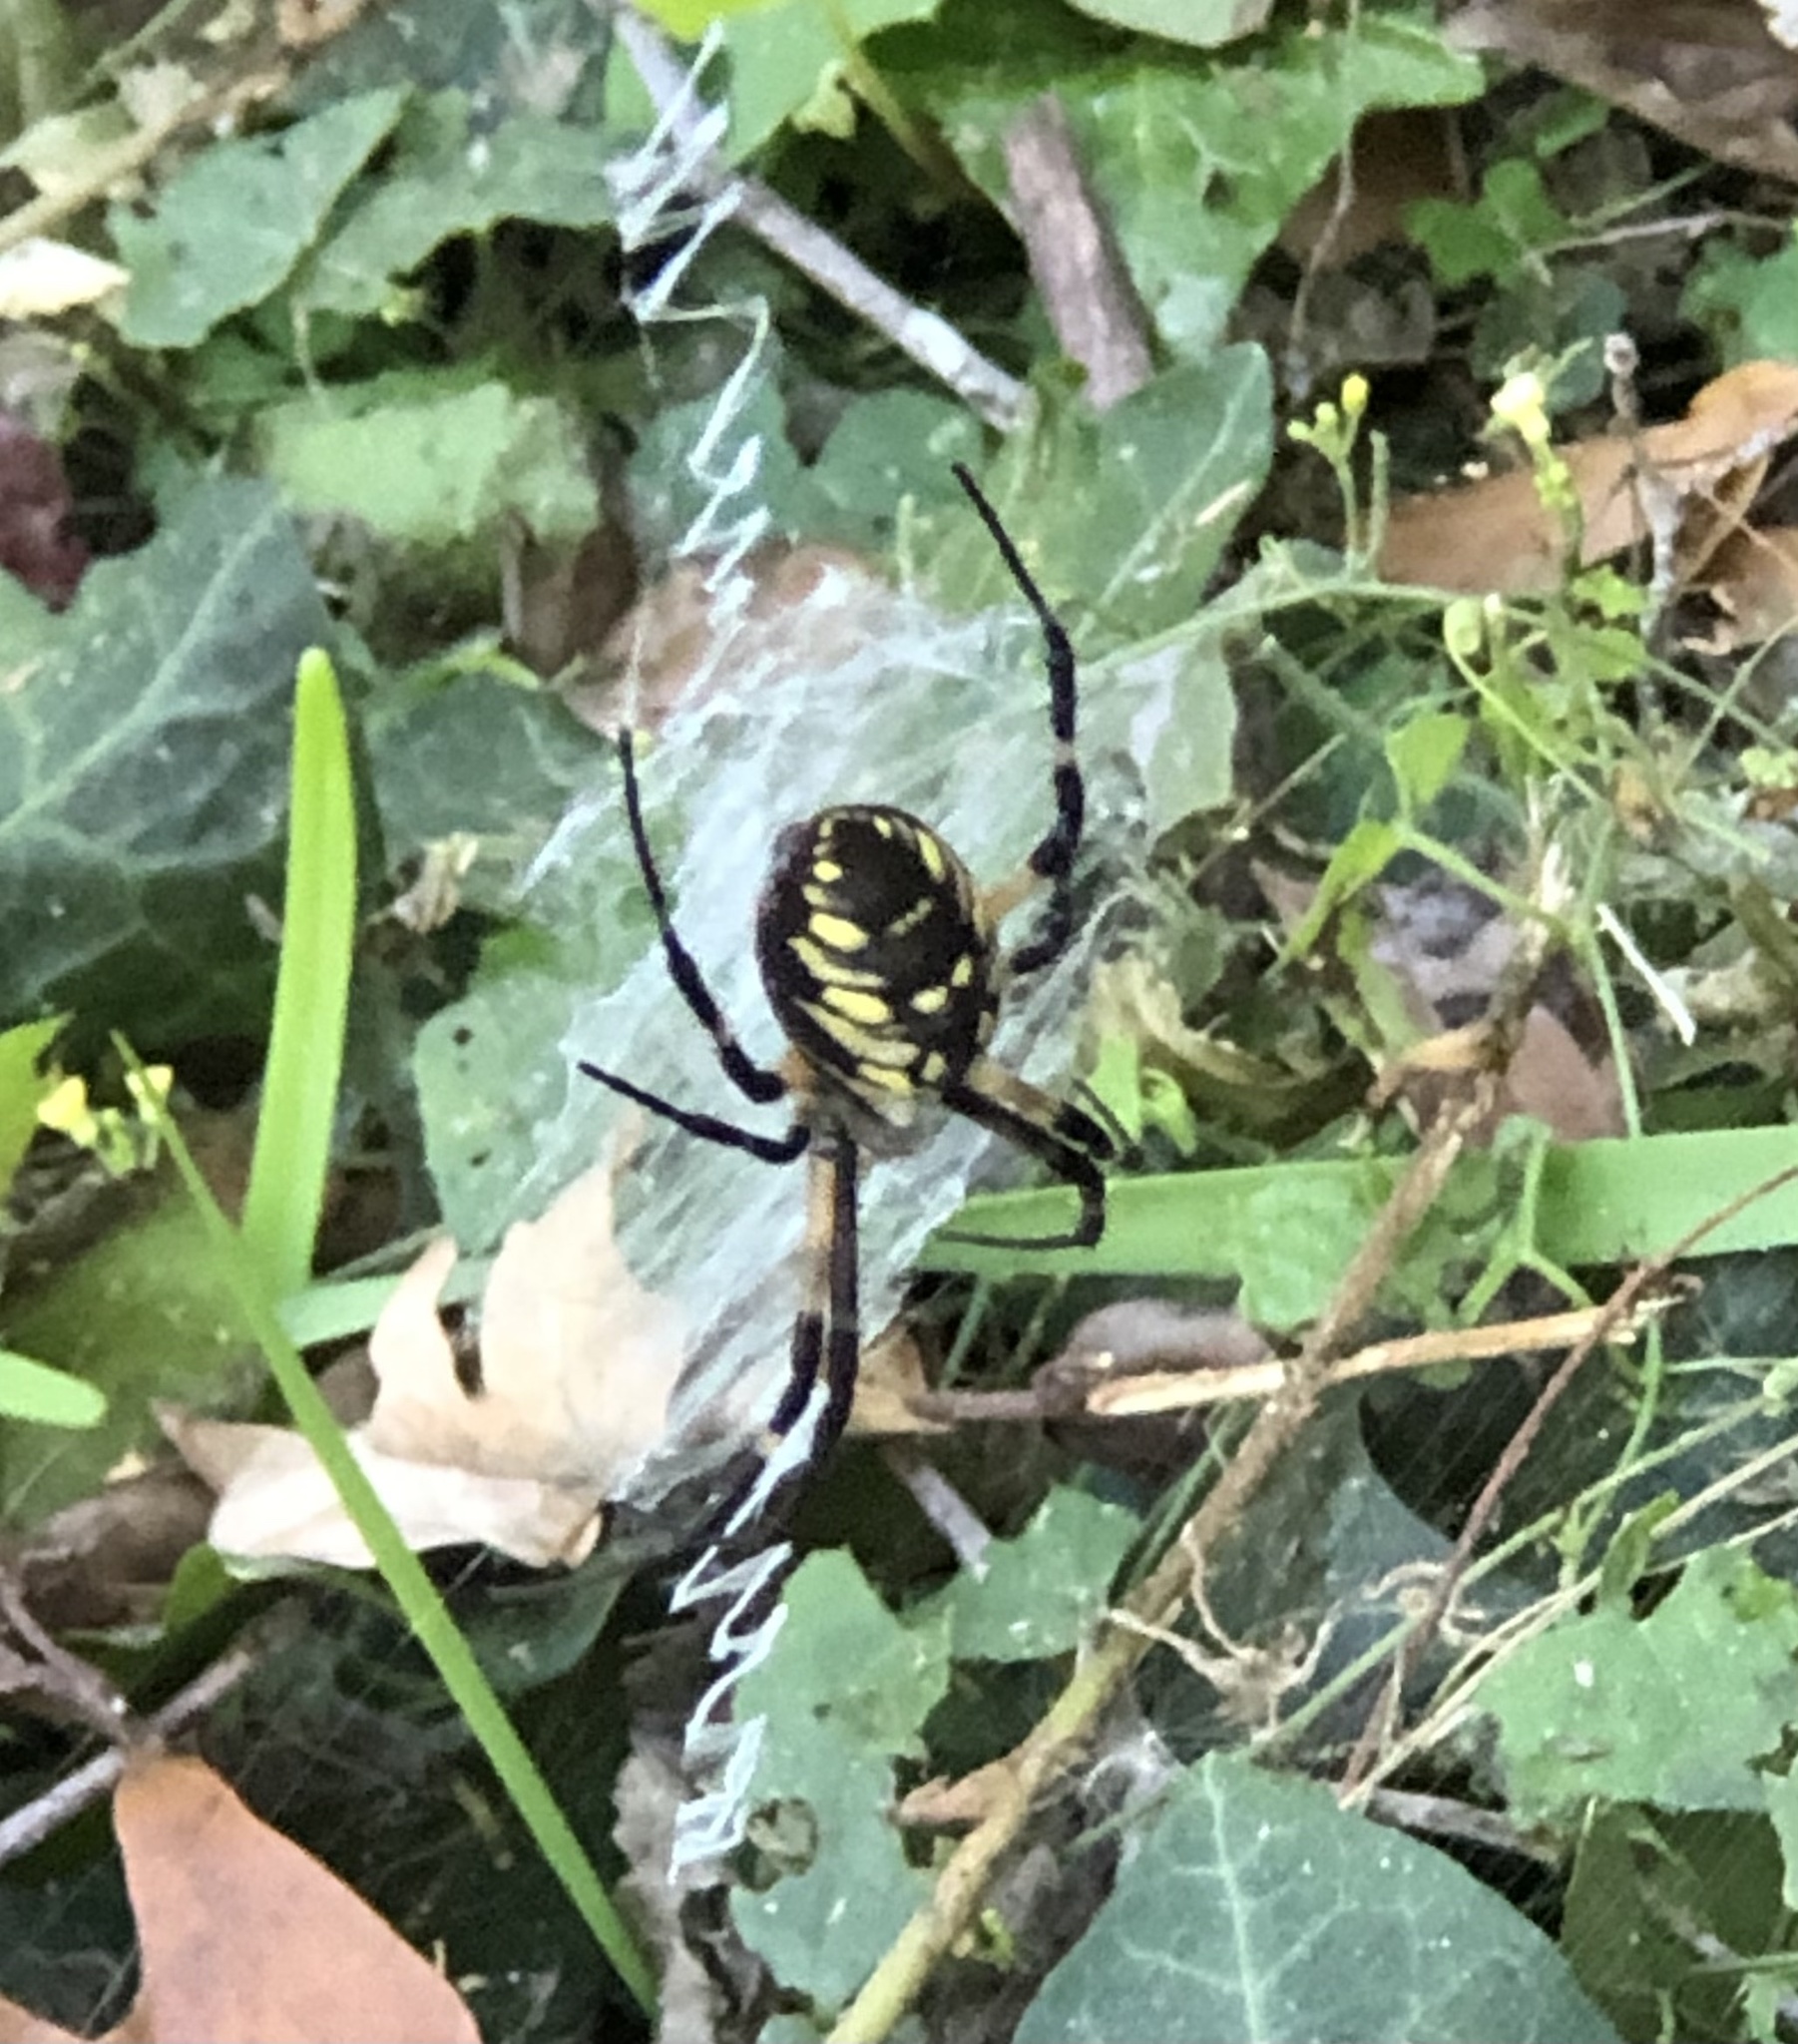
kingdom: Animalia
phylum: Arthropoda
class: Arachnida
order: Araneae
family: Araneidae
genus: Argiope
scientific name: Argiope aurantia
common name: Orb weavers
